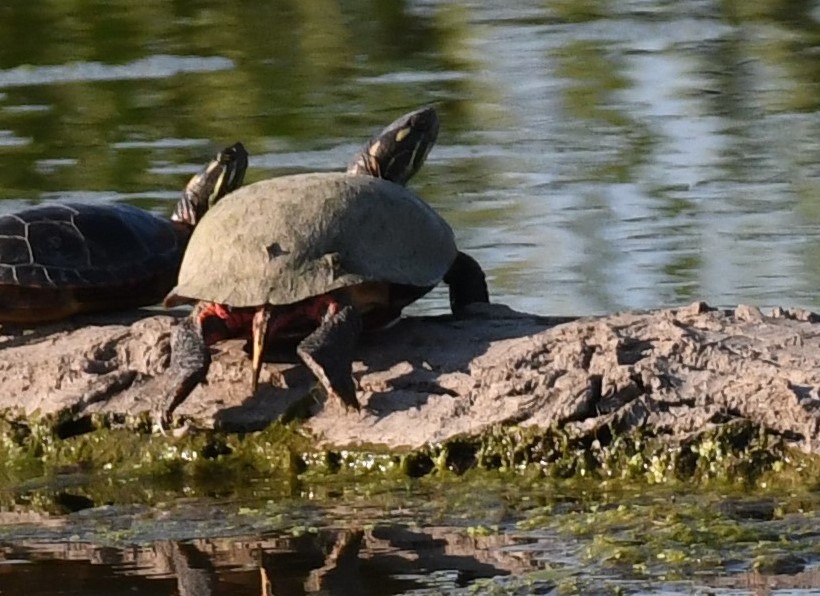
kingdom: Animalia
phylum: Chordata
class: Testudines
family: Emydidae
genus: Chrysemys
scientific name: Chrysemys picta
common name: Painted turtle
